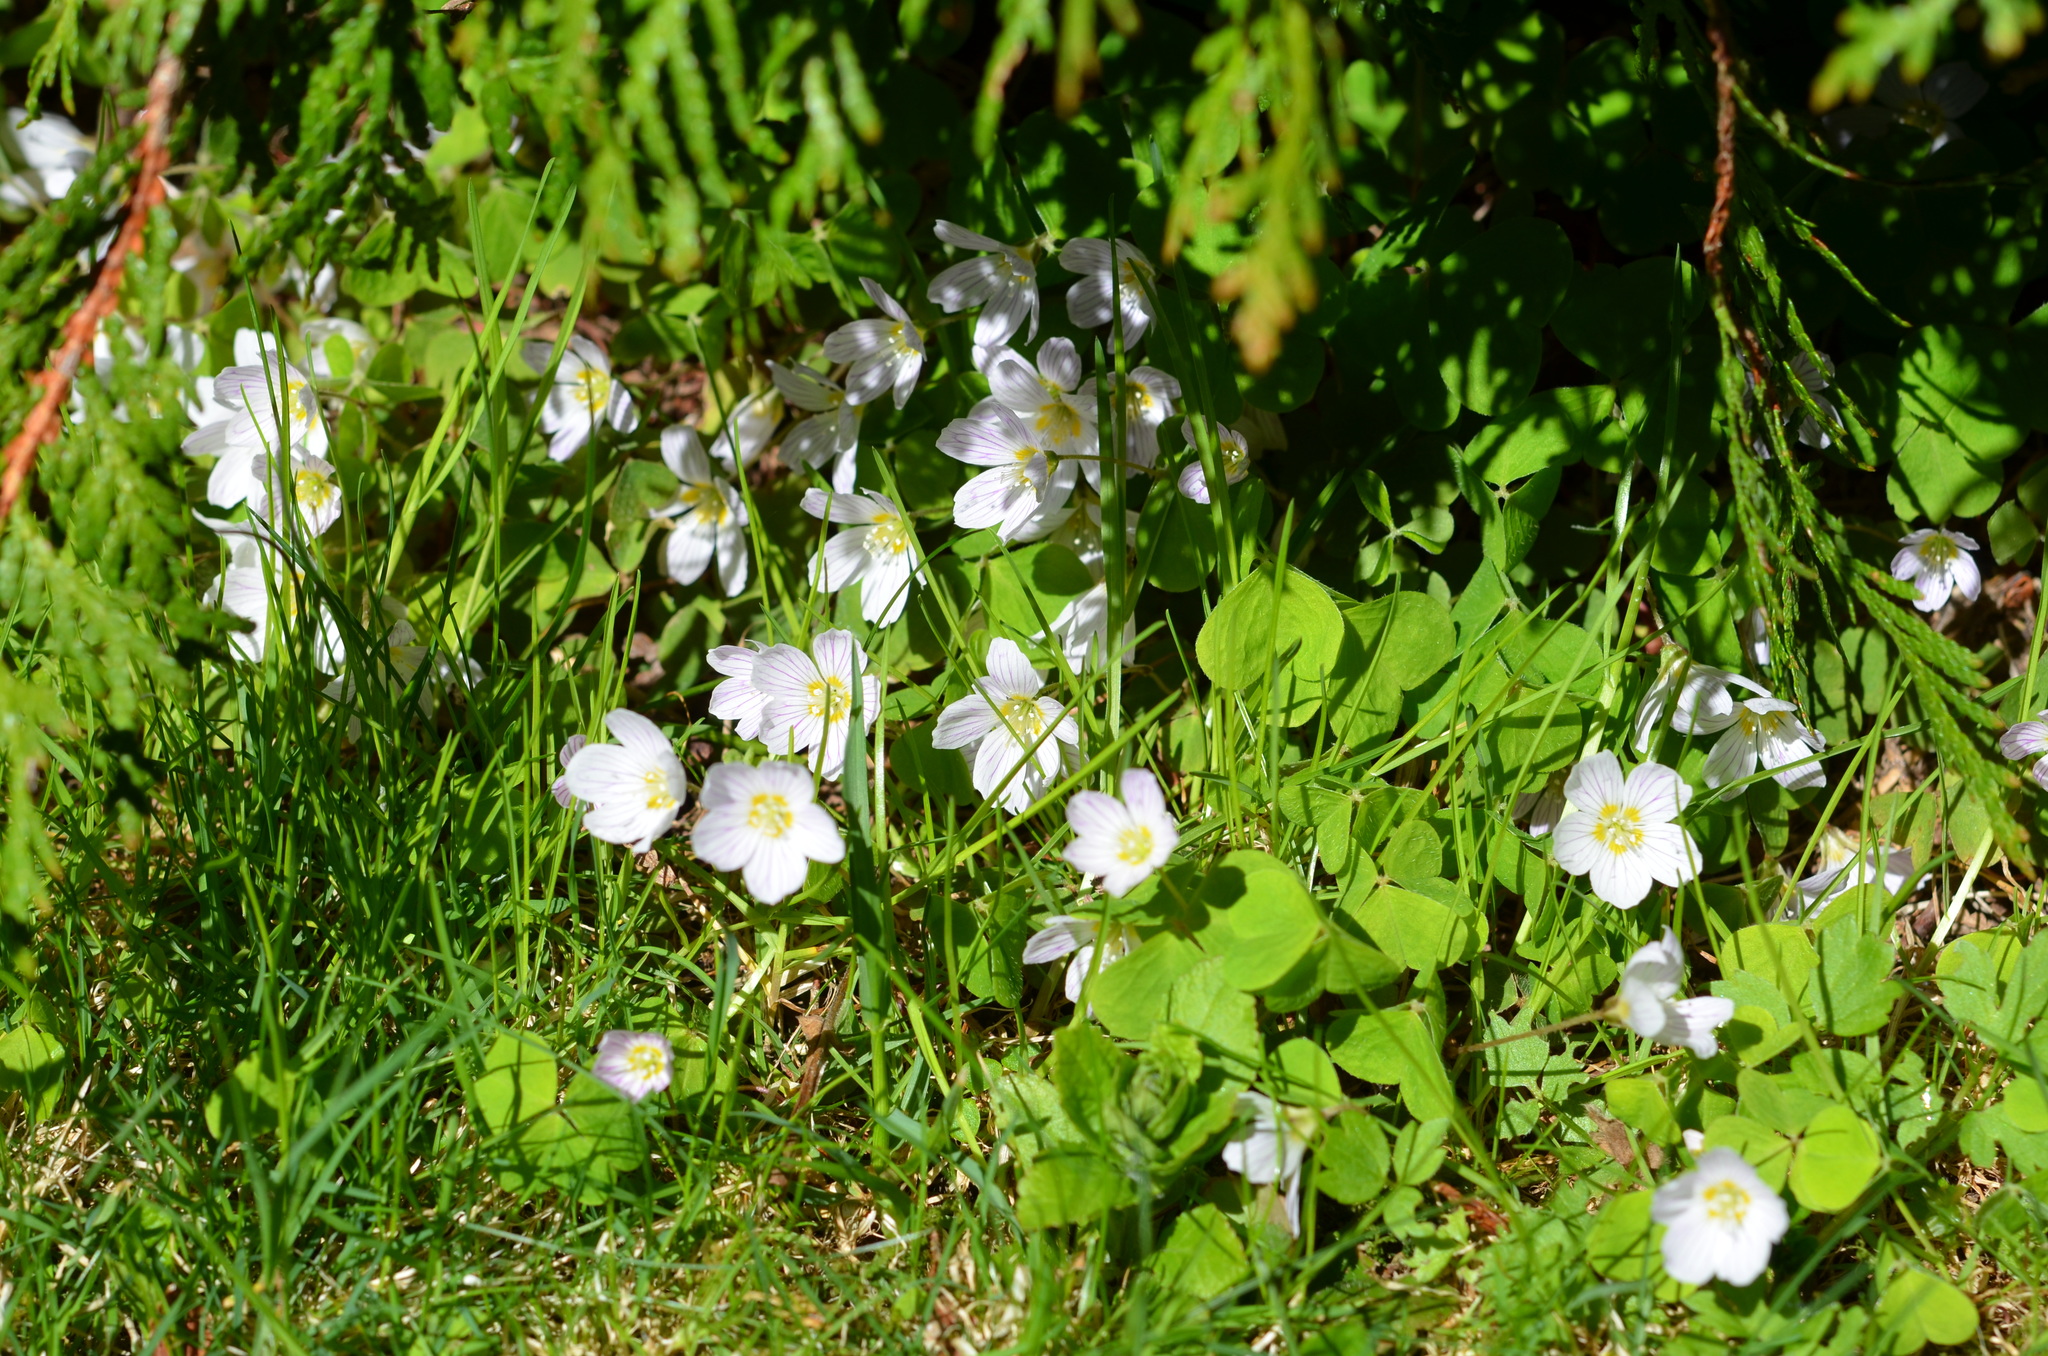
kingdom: Plantae
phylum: Tracheophyta
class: Magnoliopsida
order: Oxalidales
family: Oxalidaceae
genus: Oxalis
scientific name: Oxalis acetosella
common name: Wood-sorrel
